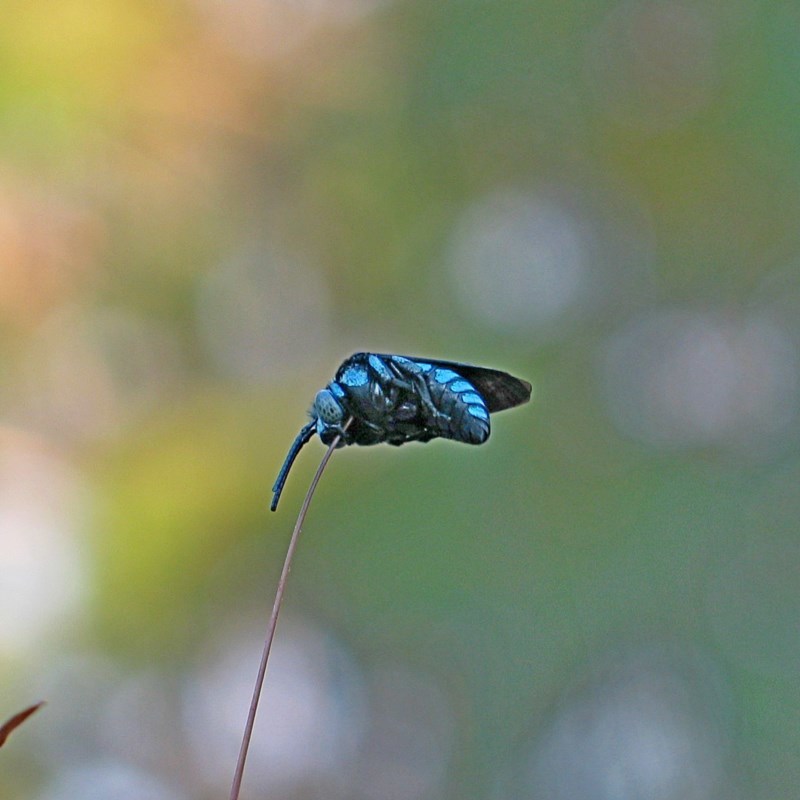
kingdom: Animalia
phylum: Arthropoda
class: Insecta
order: Hymenoptera
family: Apidae
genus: Thyreus
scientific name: Thyreus nitidulus
